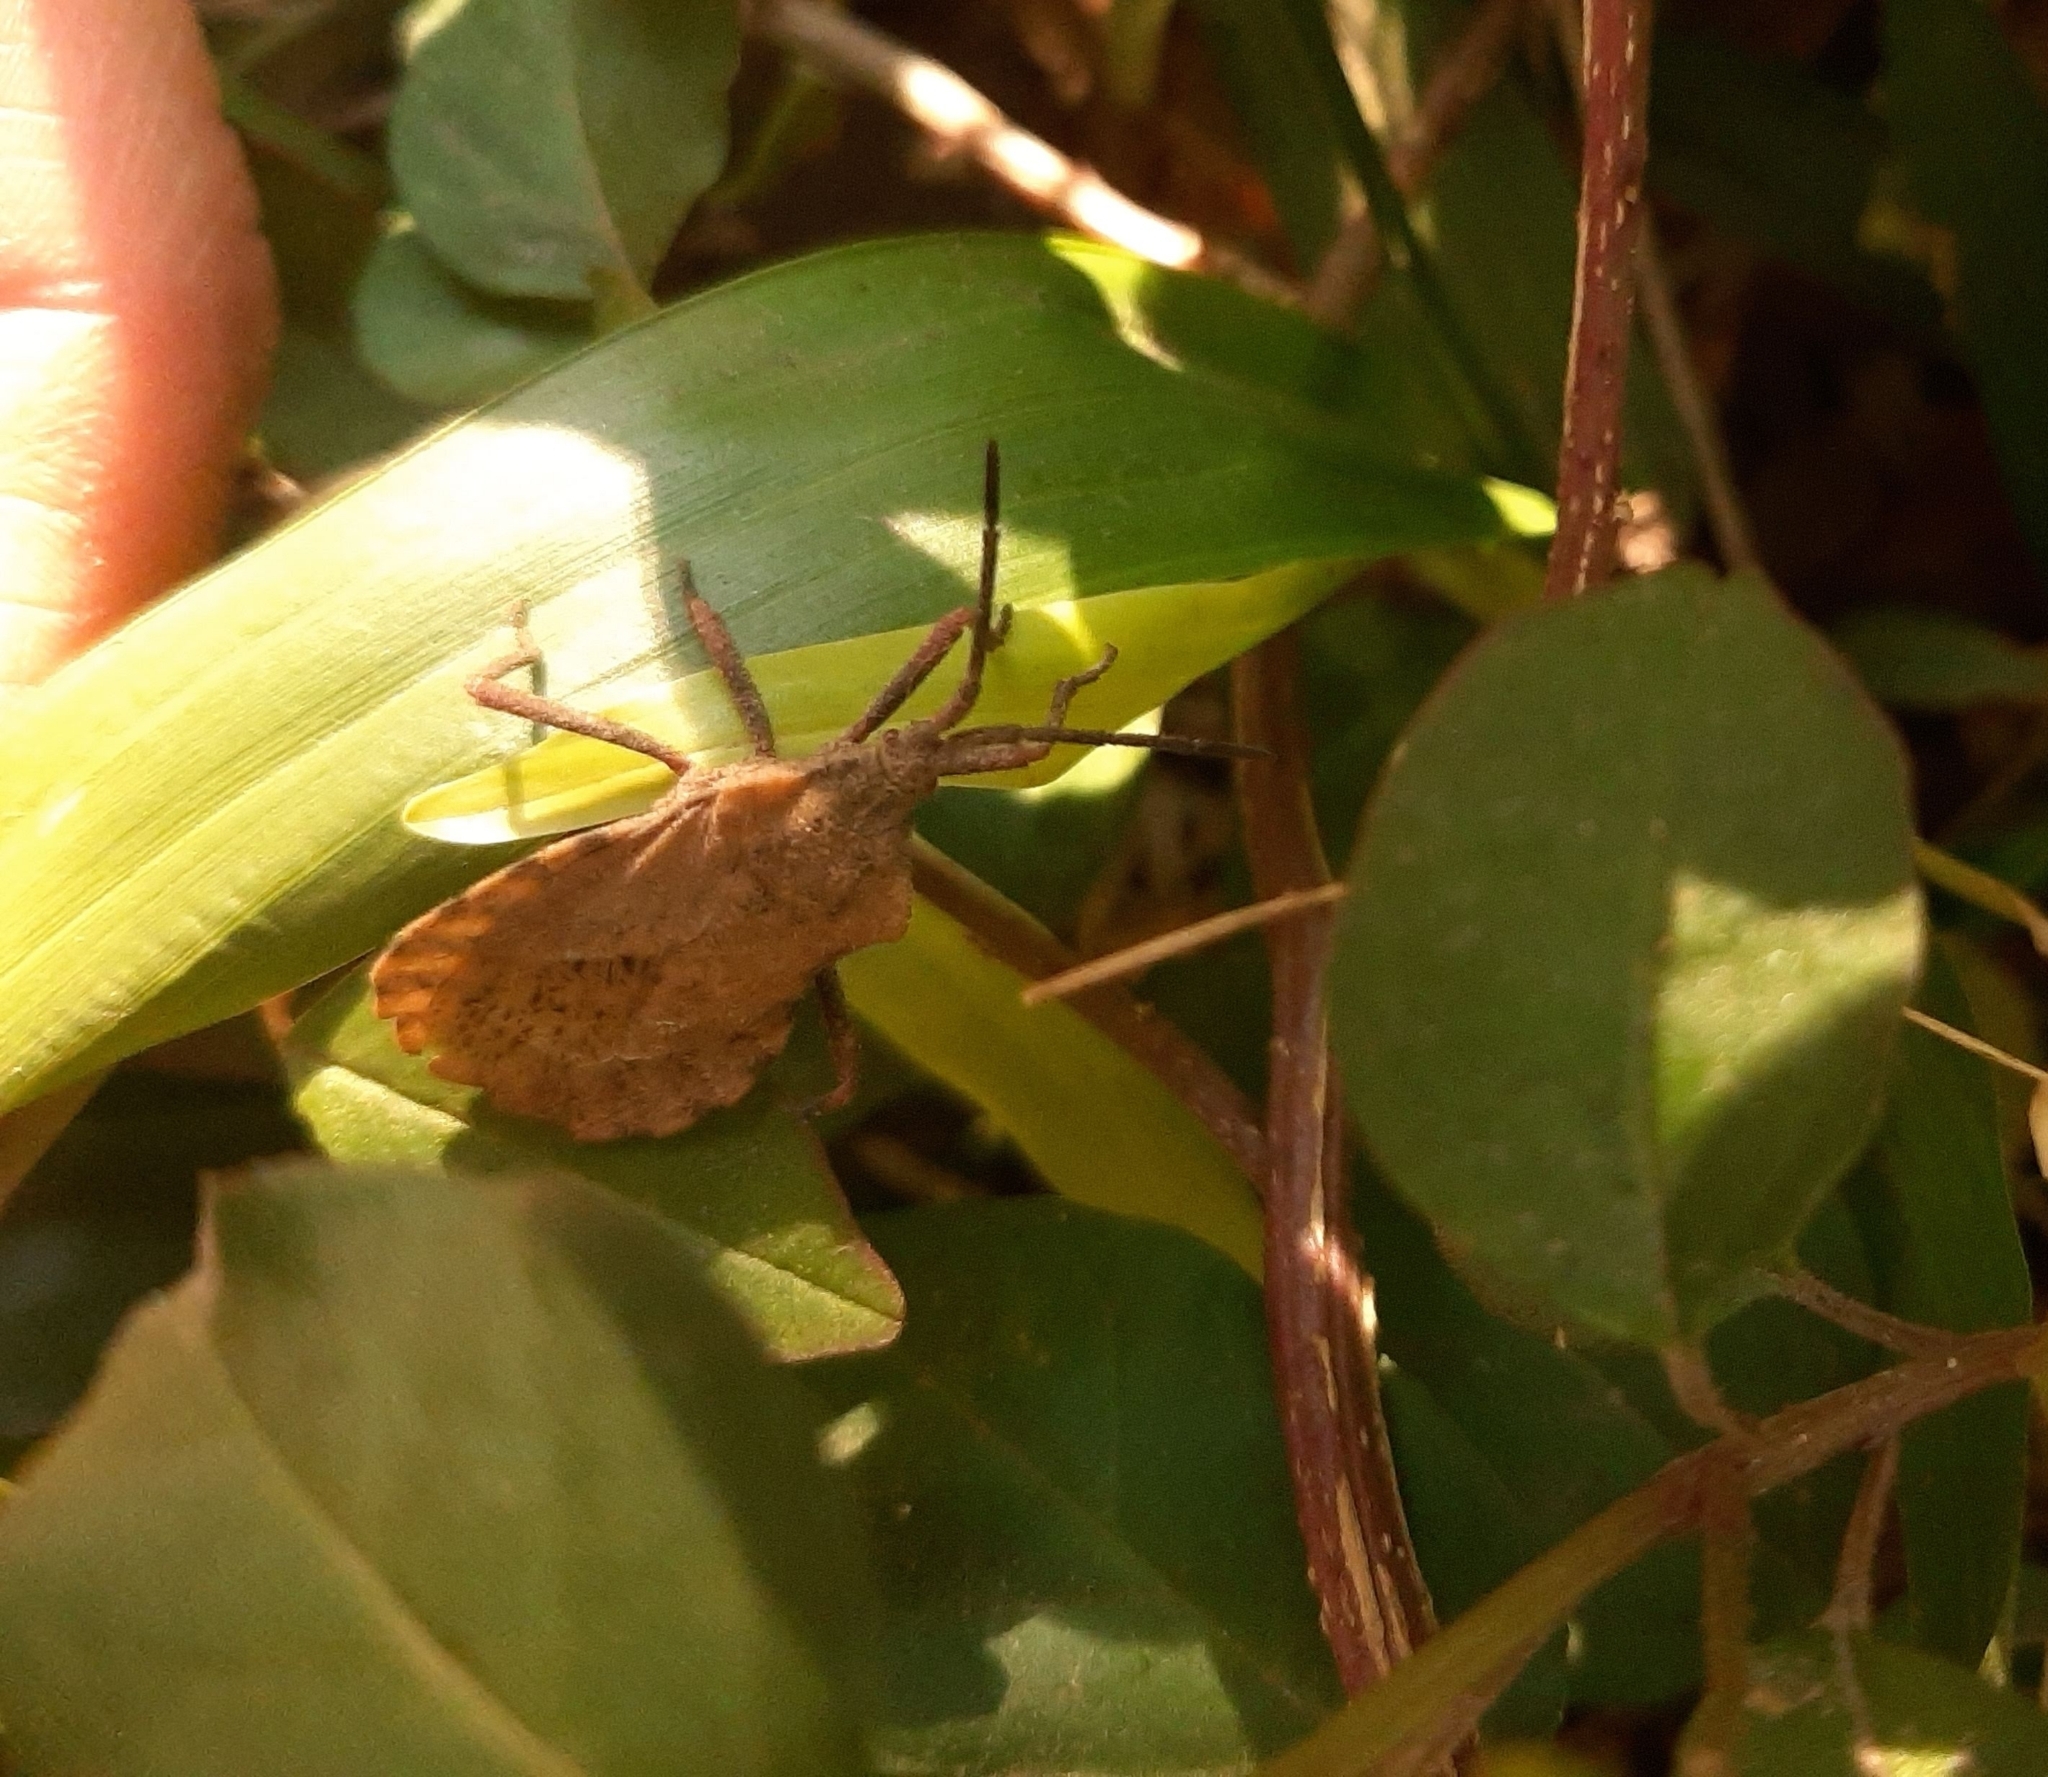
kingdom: Animalia
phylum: Arthropoda
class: Insecta
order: Hemiptera
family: Coreidae
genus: Spartocera
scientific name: Spartocera fusca
